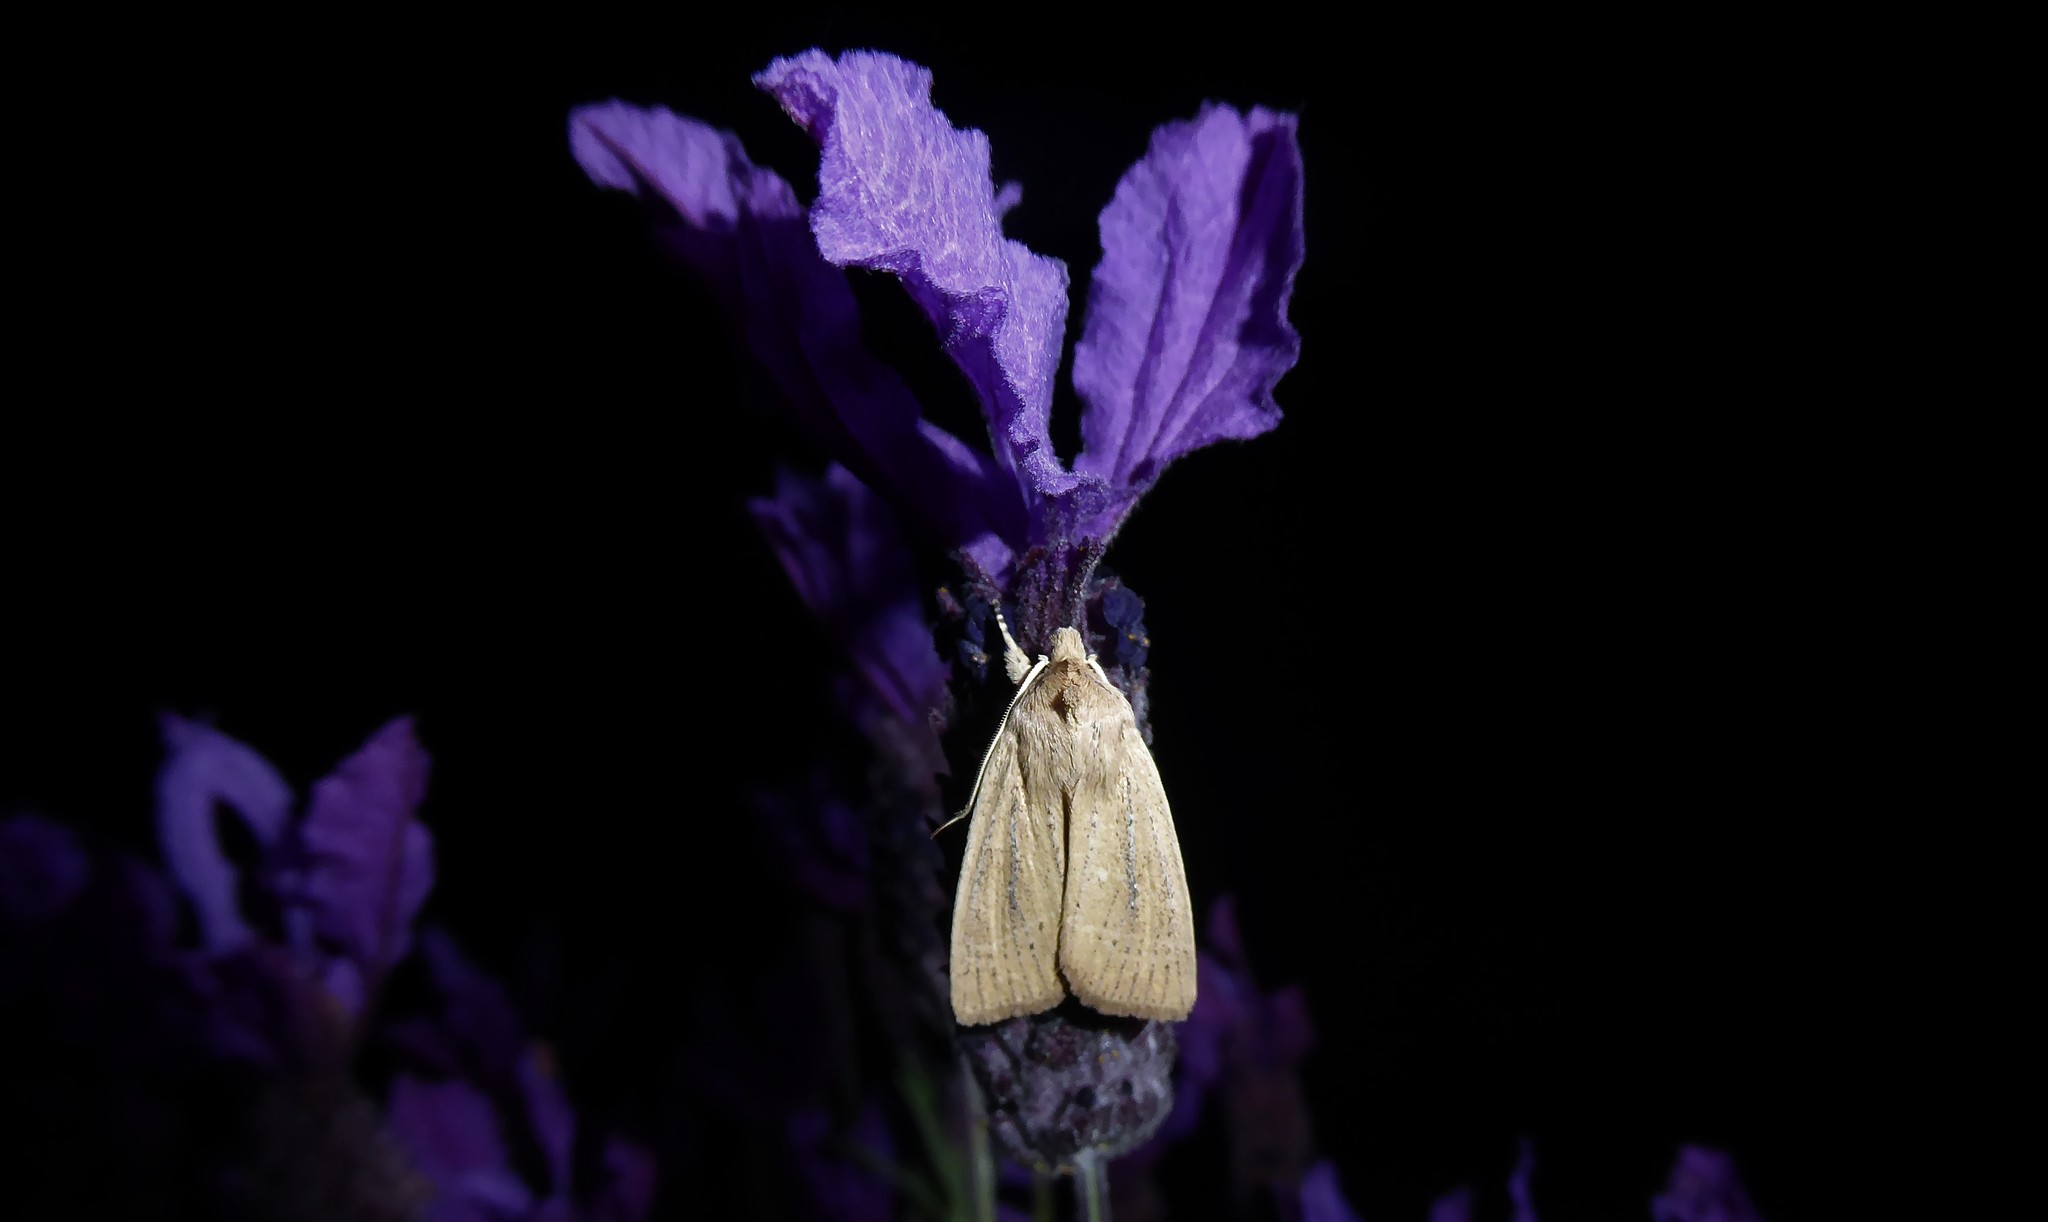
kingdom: Animalia
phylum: Arthropoda
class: Insecta
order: Lepidoptera
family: Noctuidae
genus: Ichneutica
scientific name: Ichneutica
